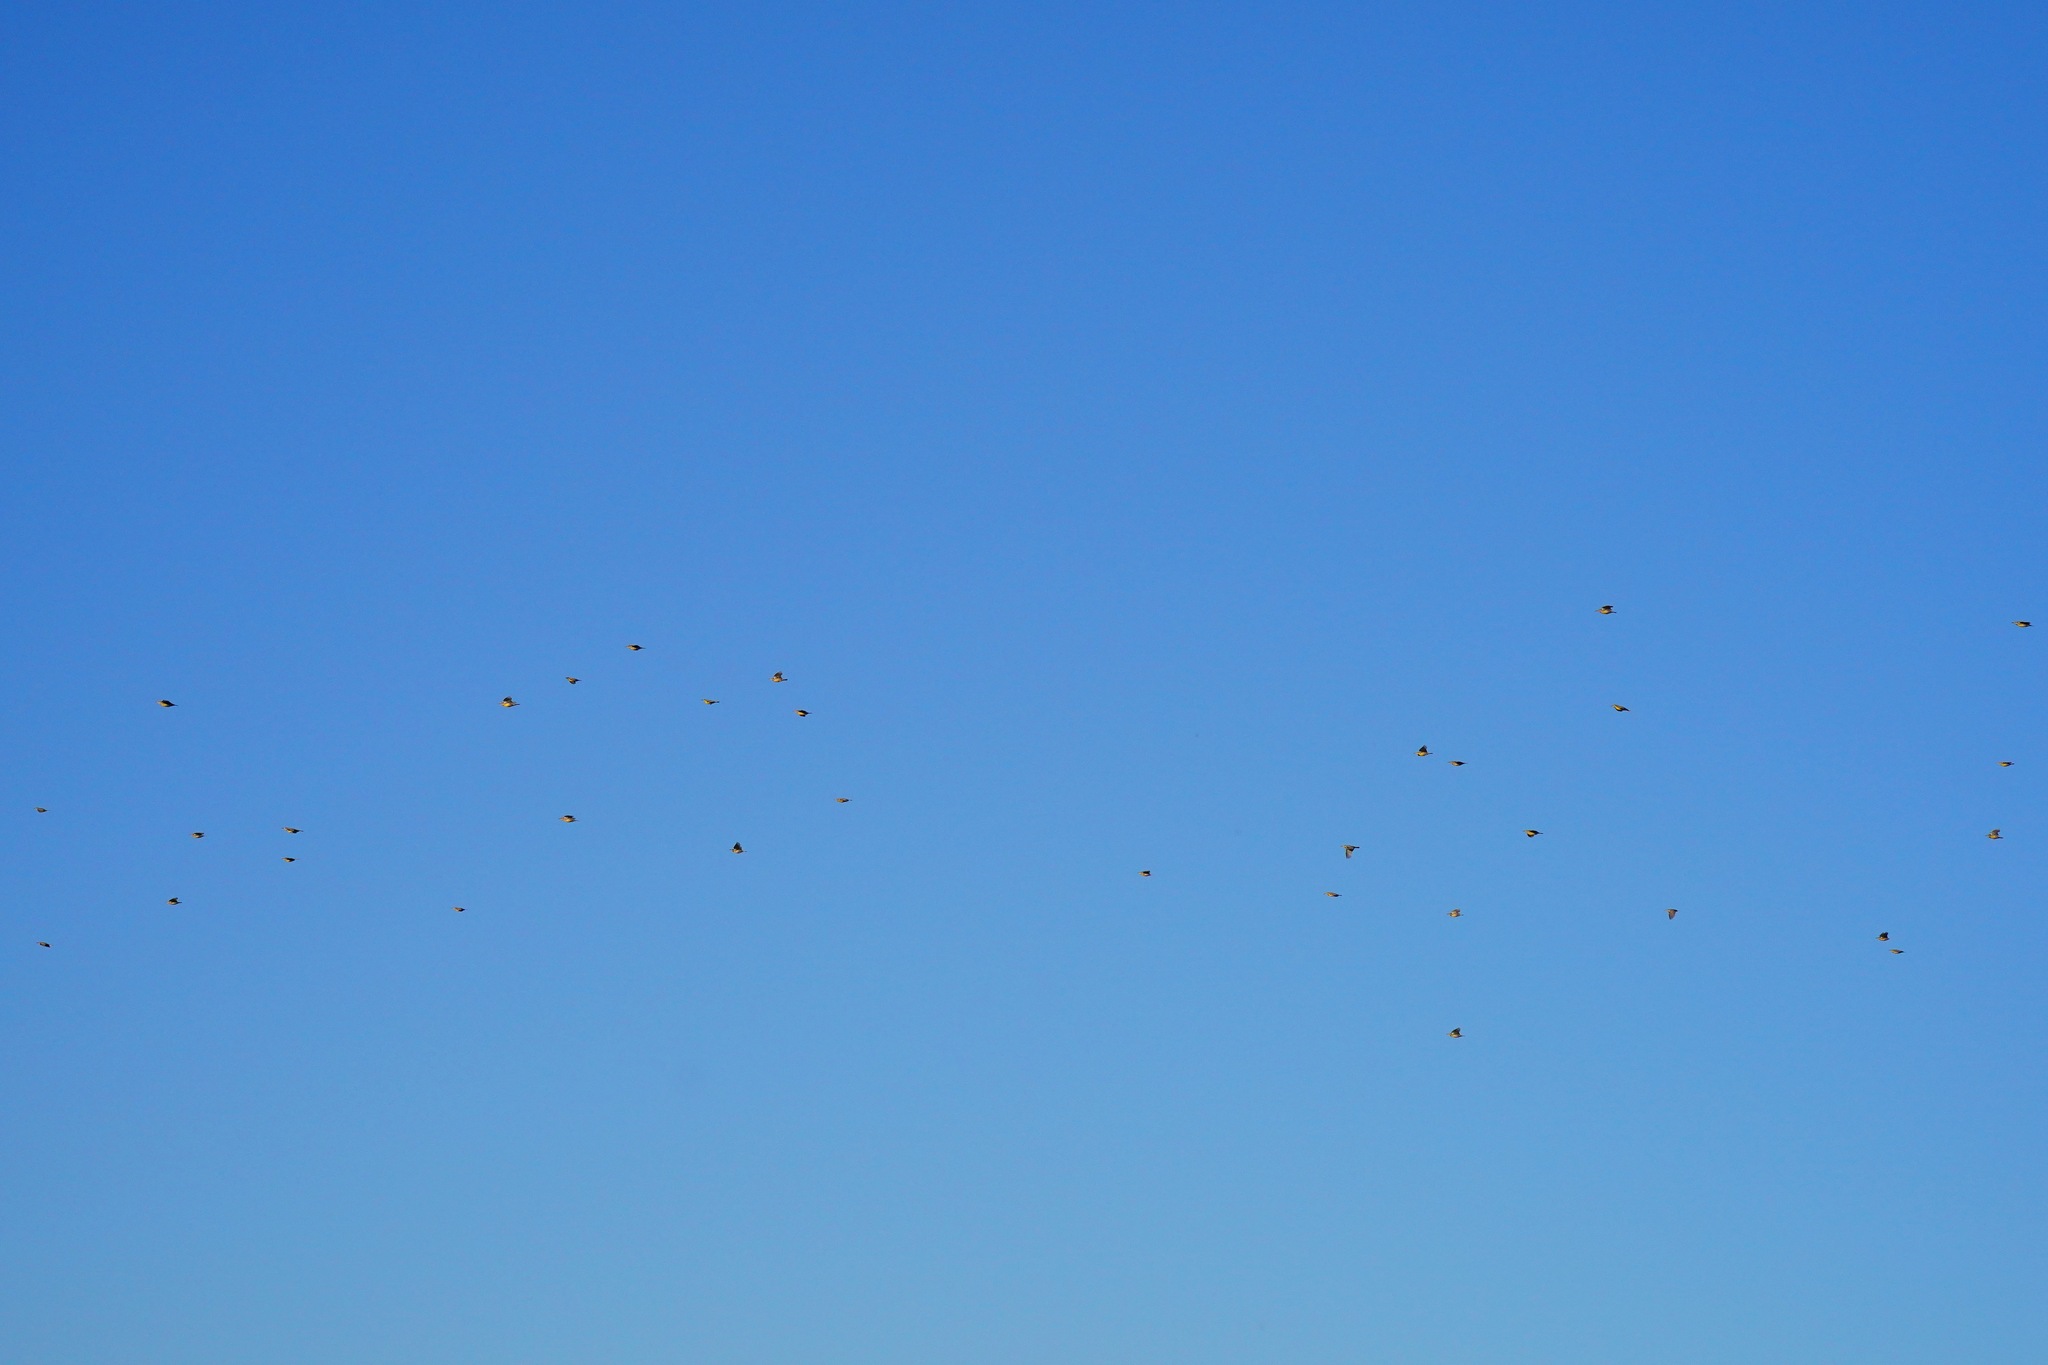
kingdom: Animalia
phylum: Chordata
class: Aves
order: Passeriformes
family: Icteridae
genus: Sturnella
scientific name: Sturnella neglecta
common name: Western meadowlark
